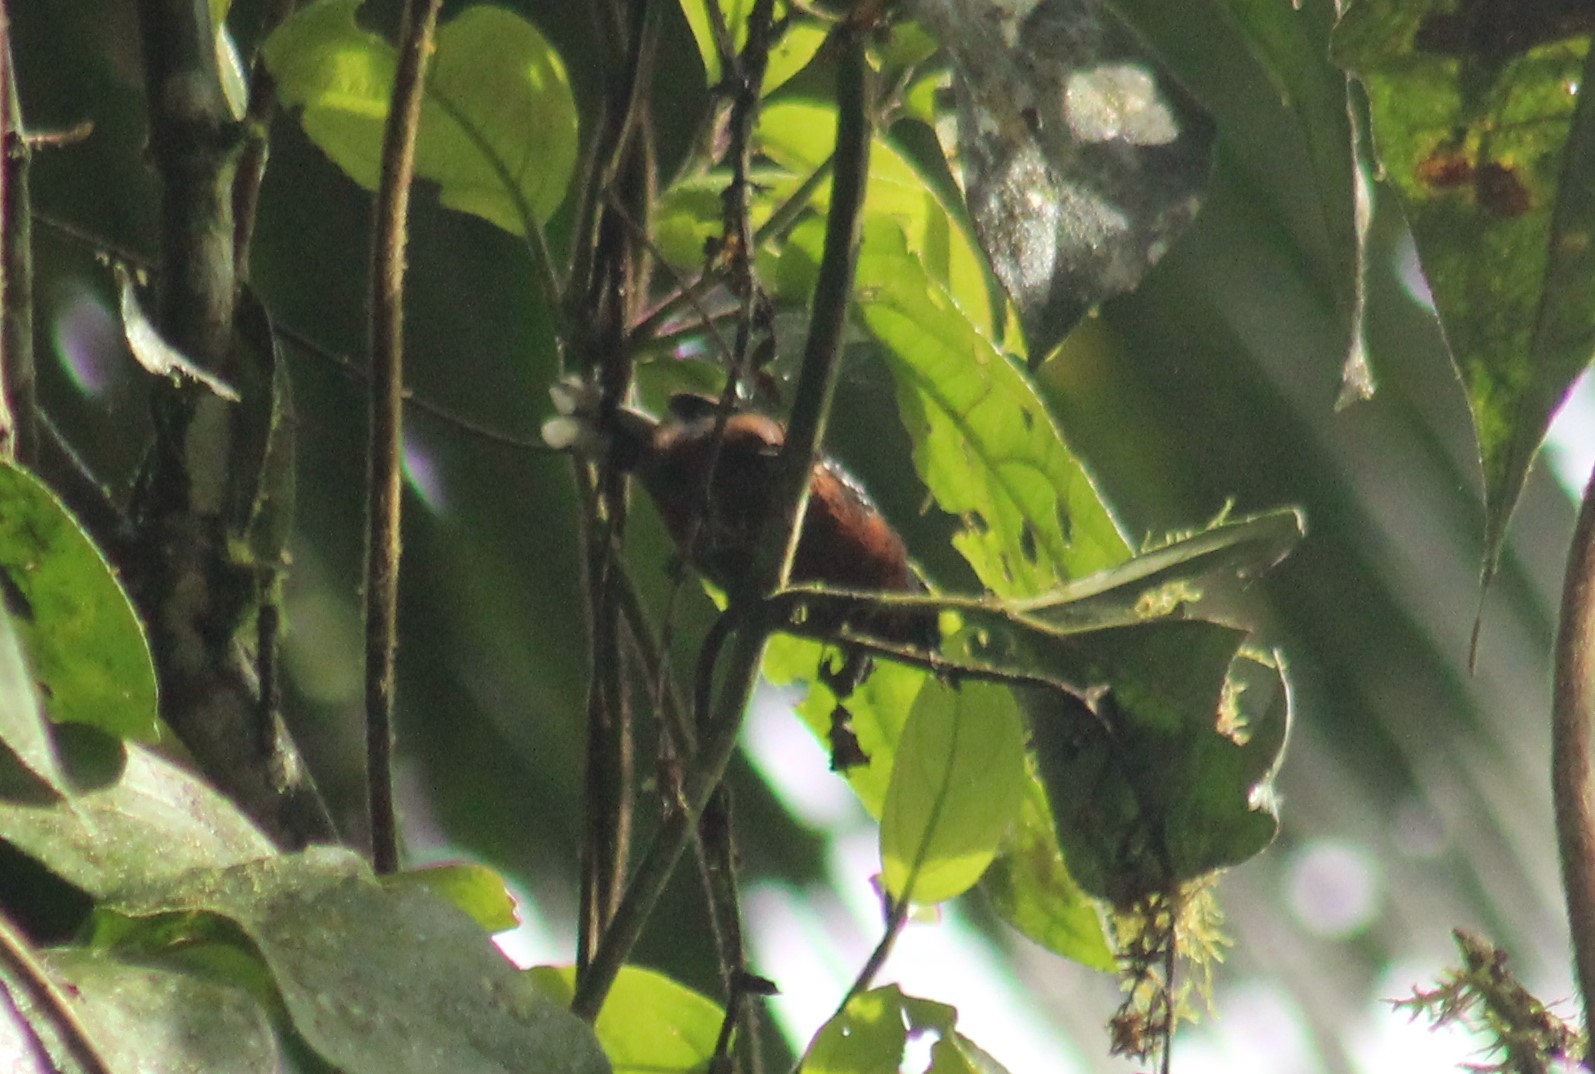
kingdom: Animalia
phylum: Chordata
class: Aves
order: Passeriformes
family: Thamnophilidae
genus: Microrhopias
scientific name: Microrhopias quixensis
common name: Dot-winged antwren
